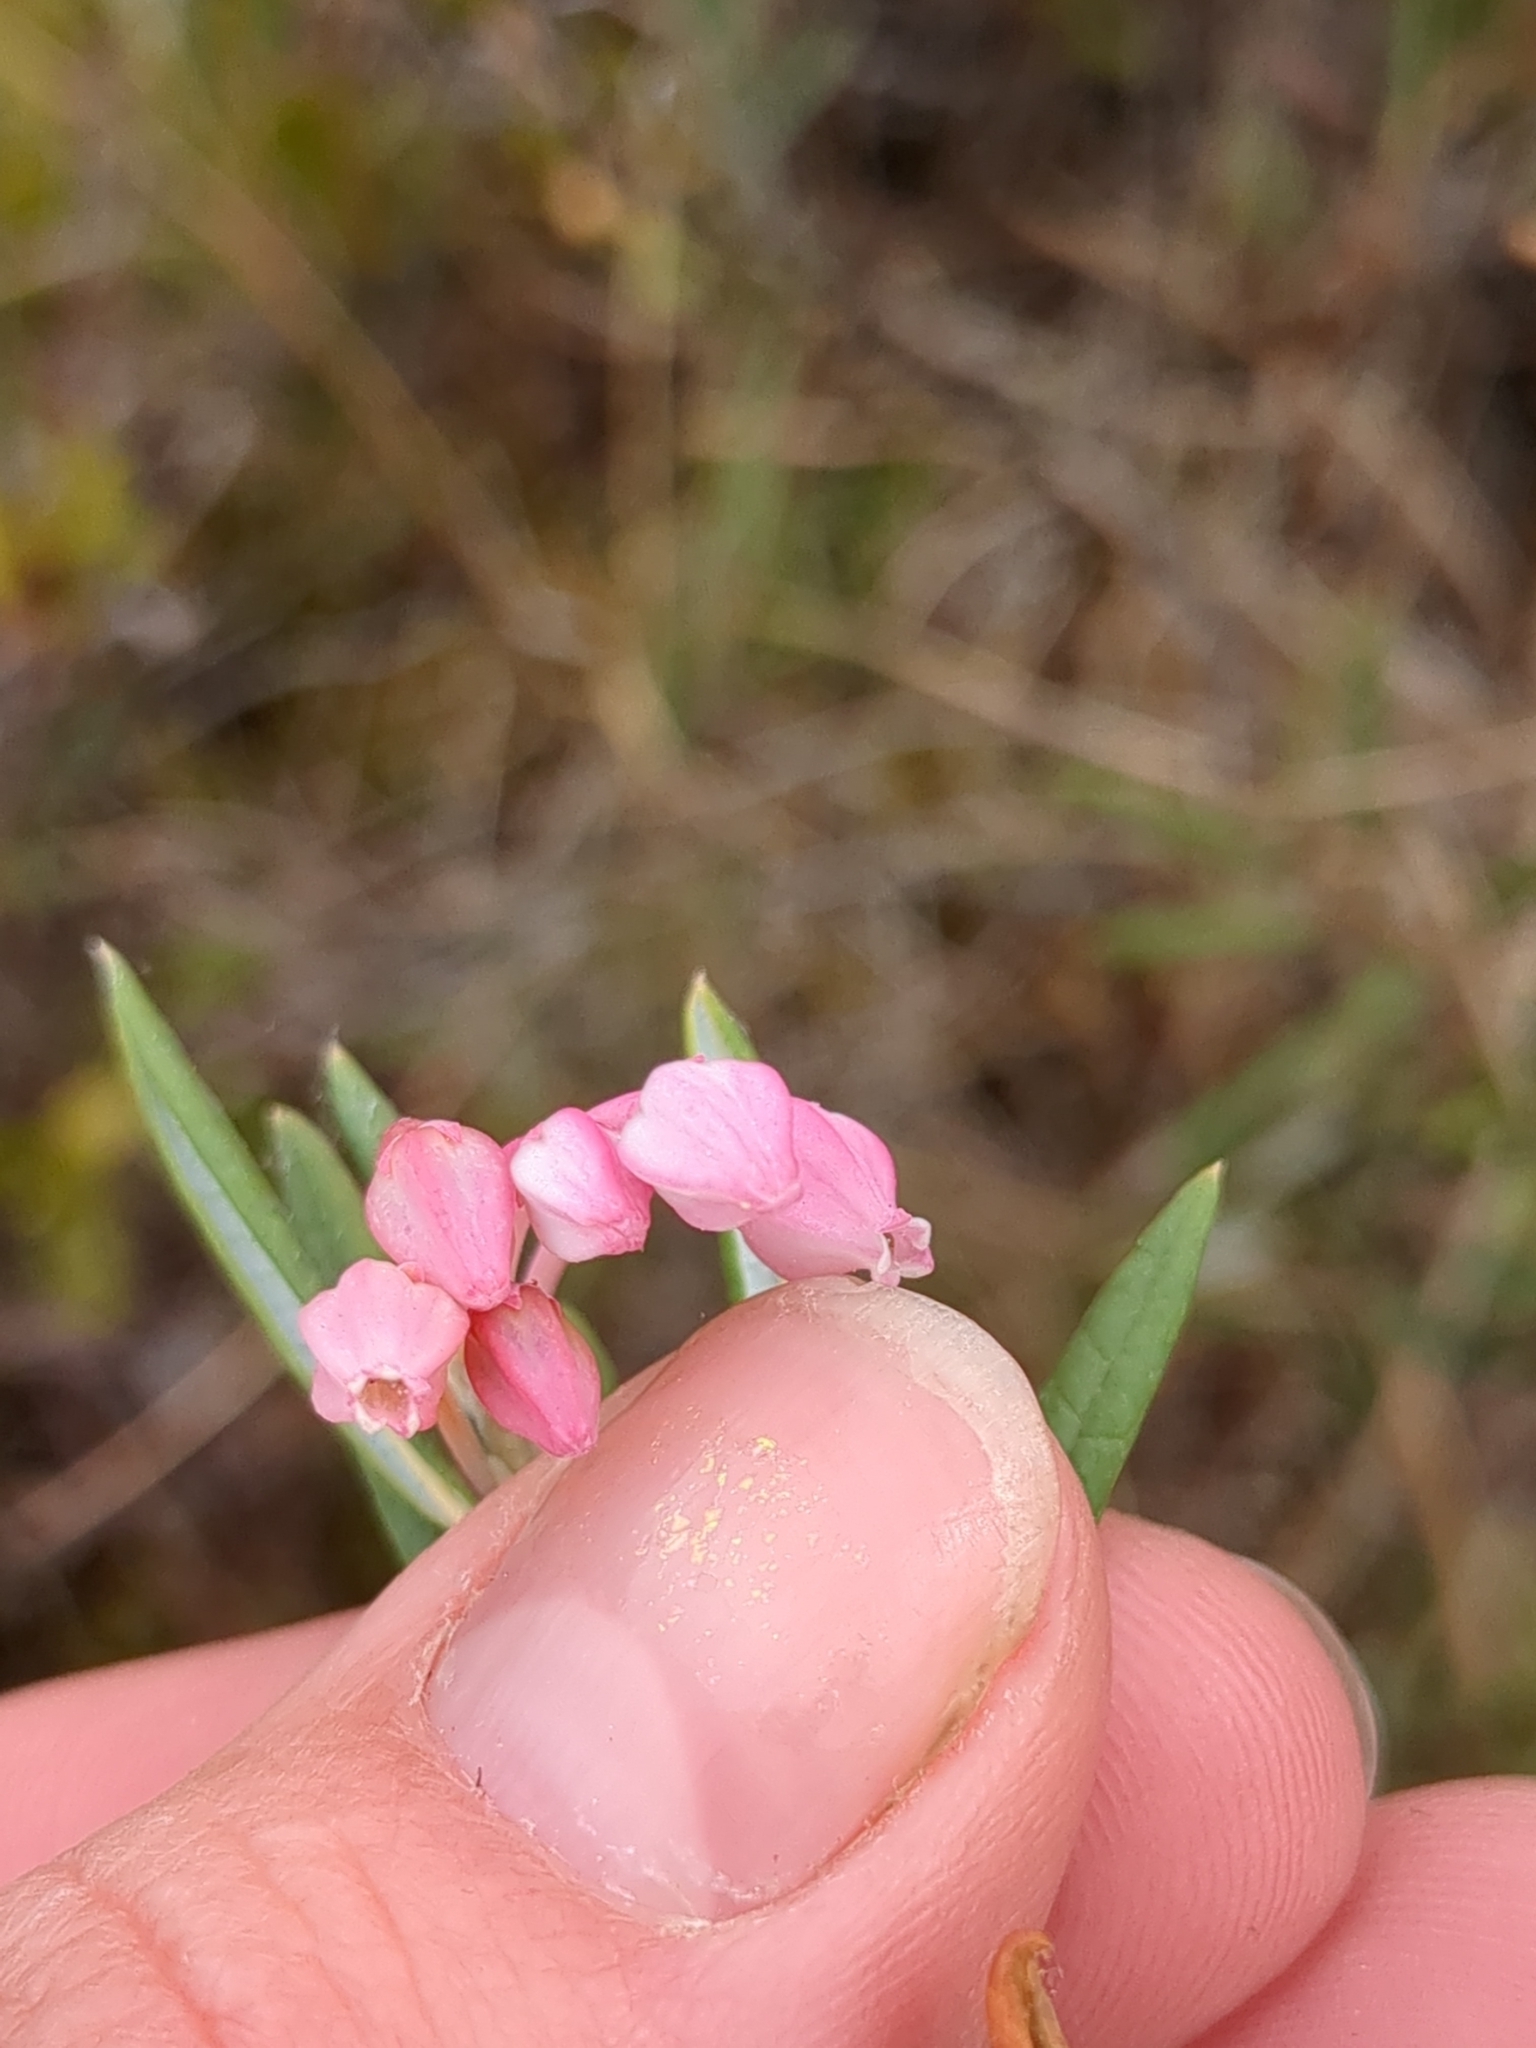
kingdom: Plantae
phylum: Tracheophyta
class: Magnoliopsida
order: Ericales
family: Ericaceae
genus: Andromeda
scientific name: Andromeda polifolia
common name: Bog-rosemary
